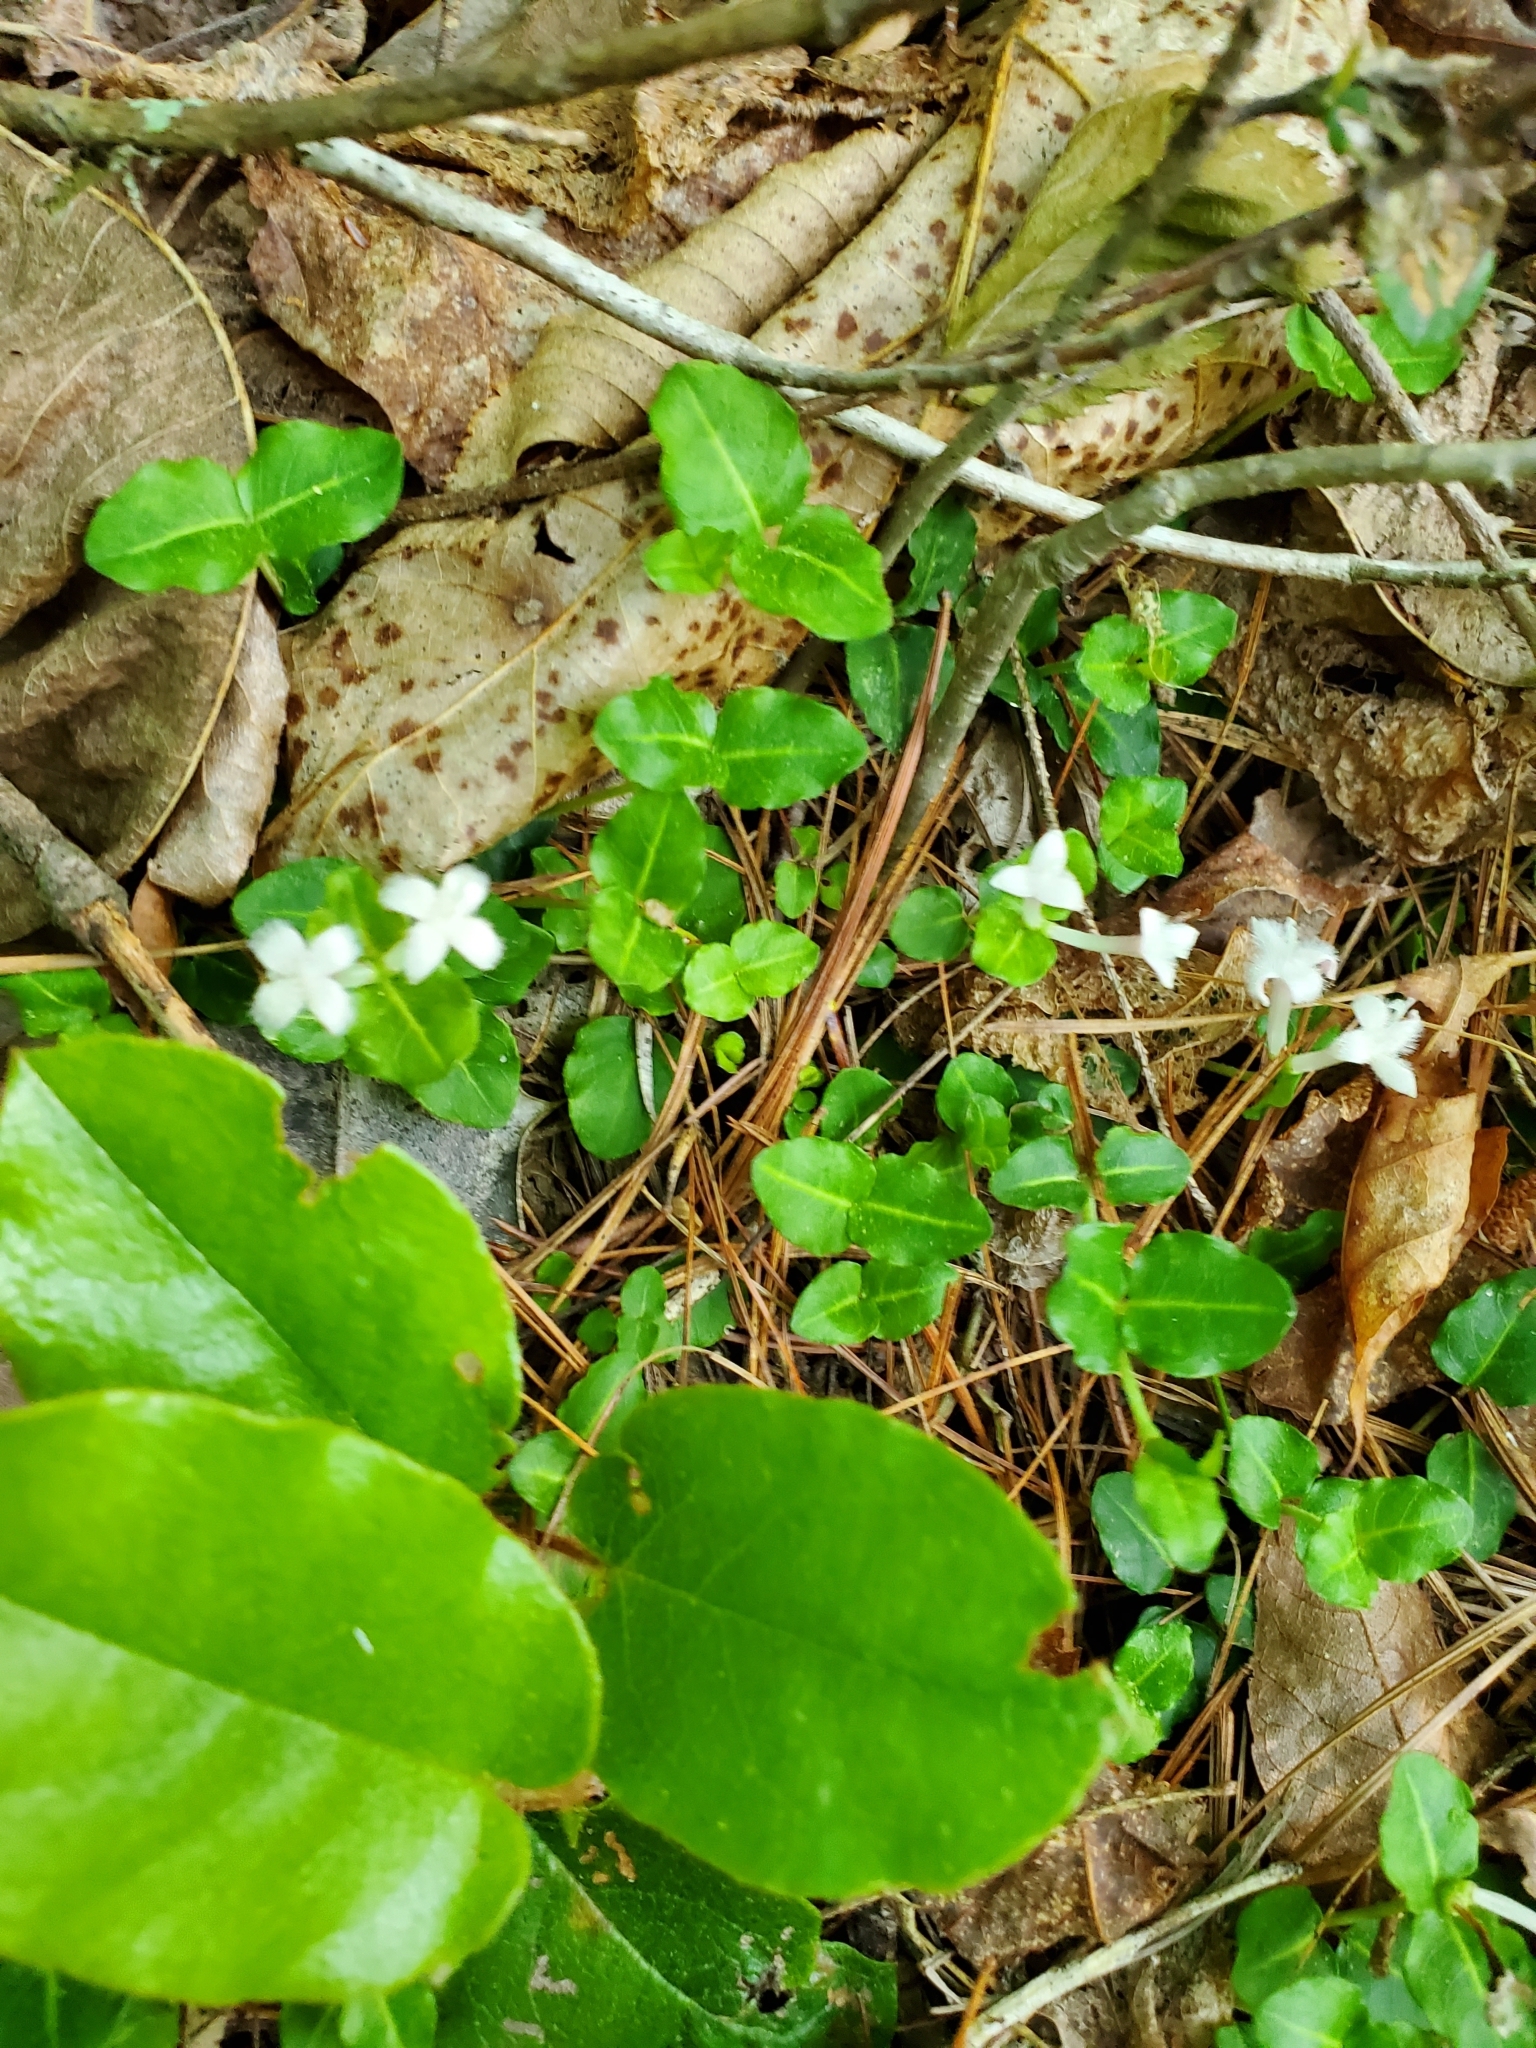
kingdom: Plantae
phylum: Tracheophyta
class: Magnoliopsida
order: Ericales
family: Ericaceae
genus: Epigaea
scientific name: Epigaea repens
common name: Gravelroot
